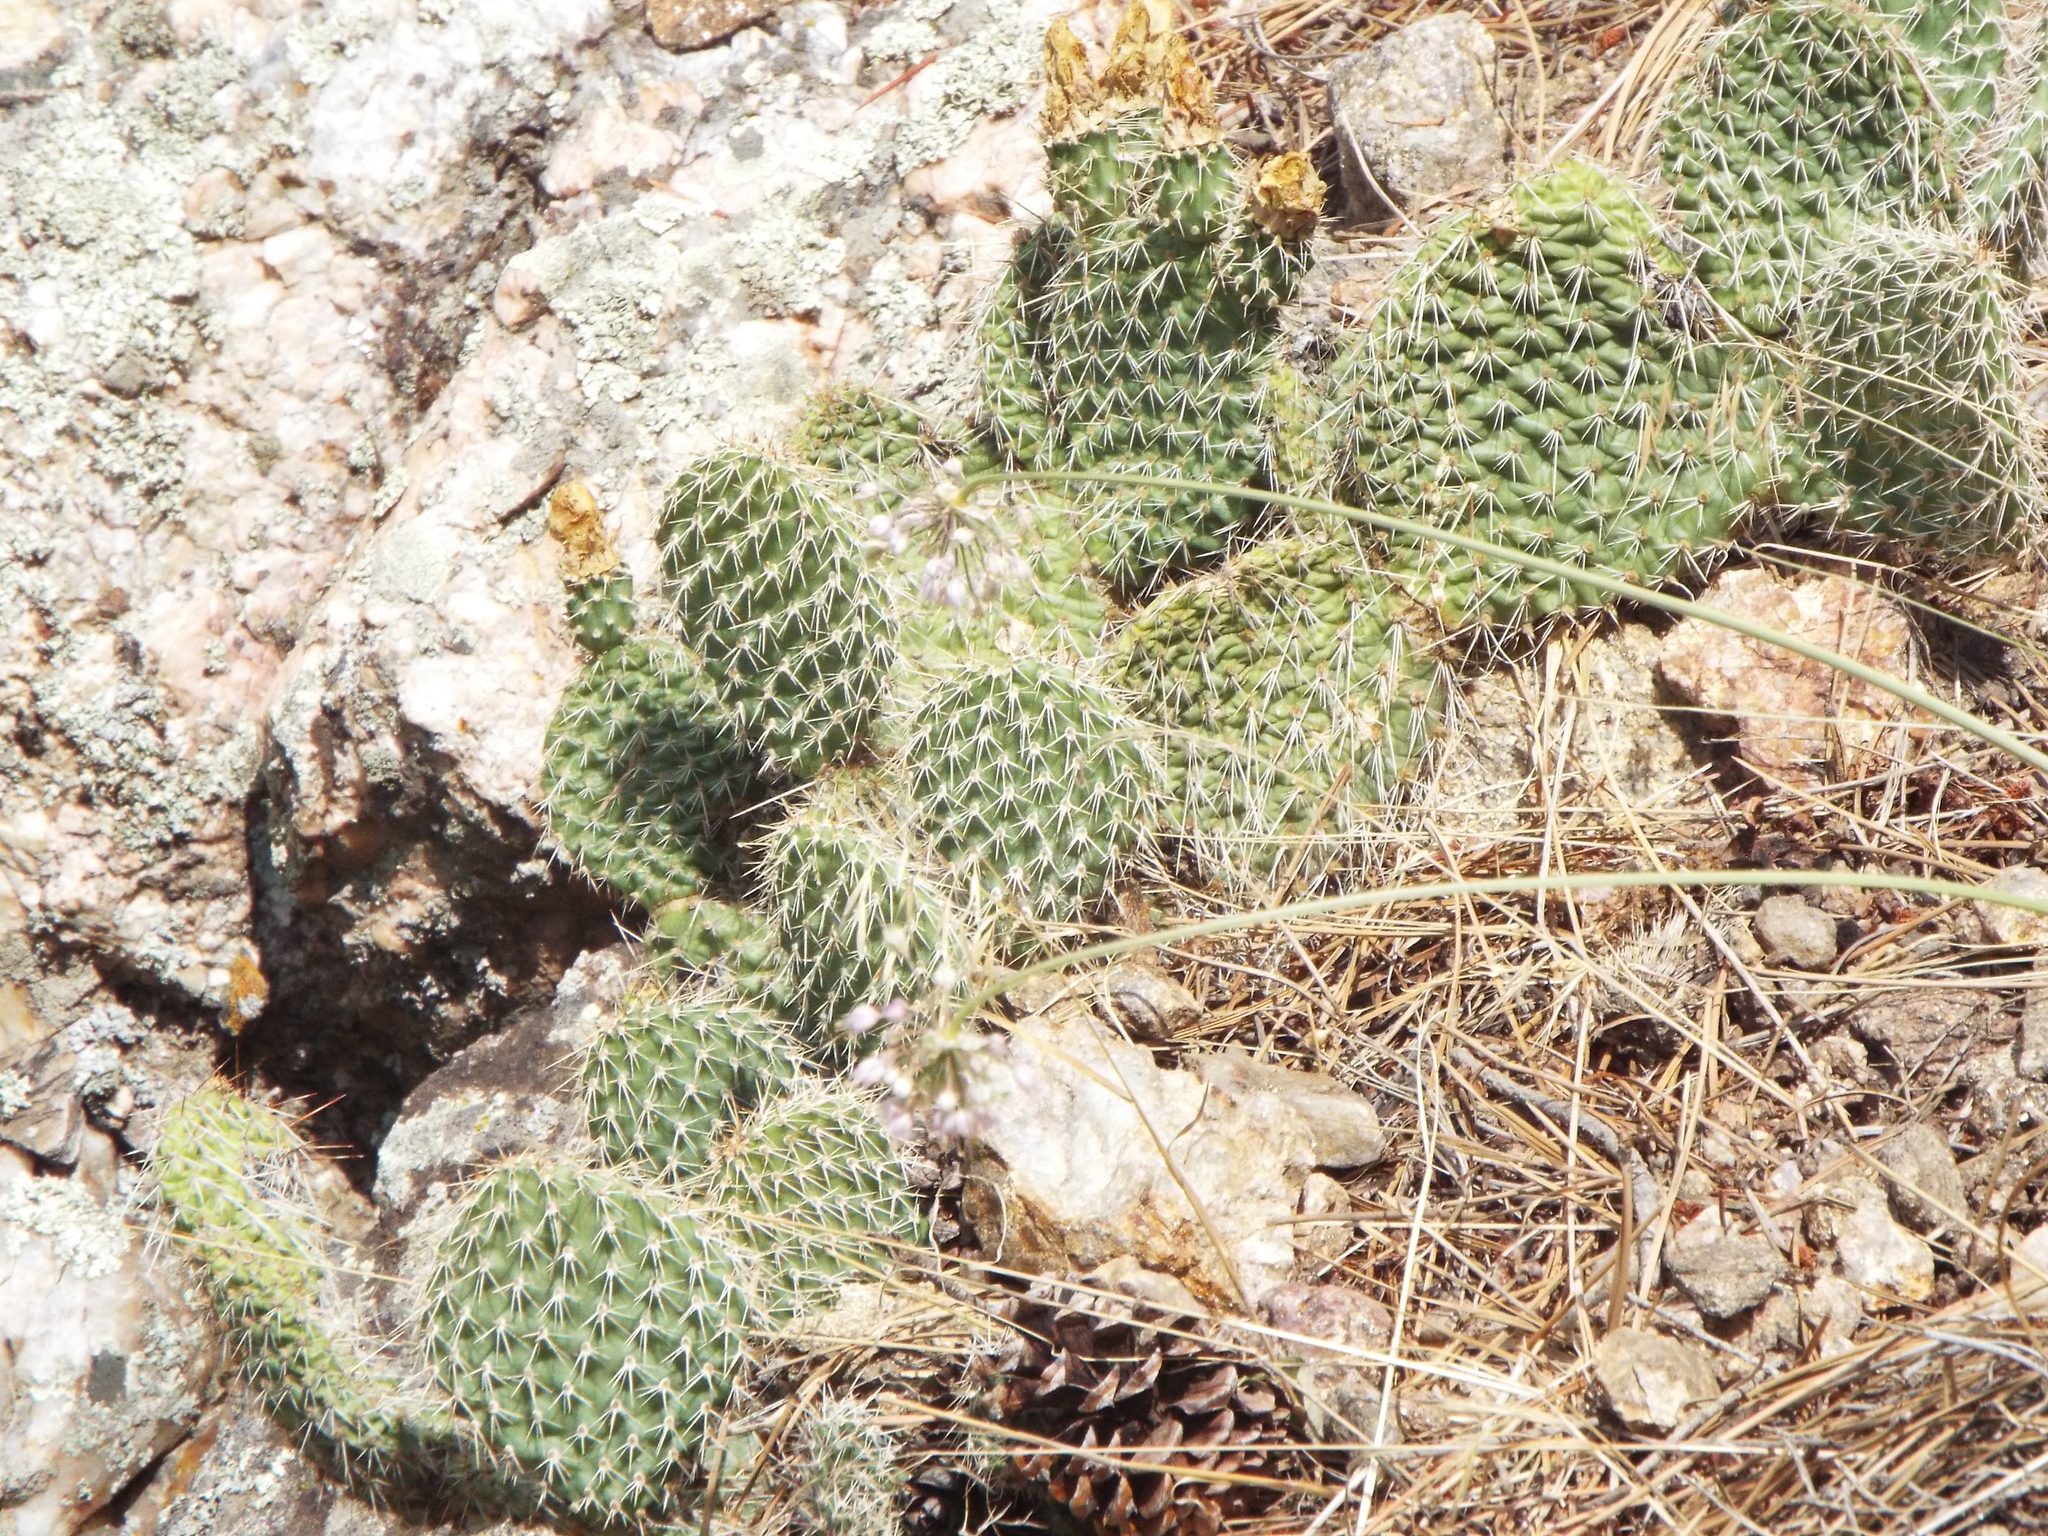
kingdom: Plantae
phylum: Tracheophyta
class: Magnoliopsida
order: Caryophyllales
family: Cactaceae
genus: Opuntia
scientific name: Opuntia polyacantha
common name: Plains prickly-pear
